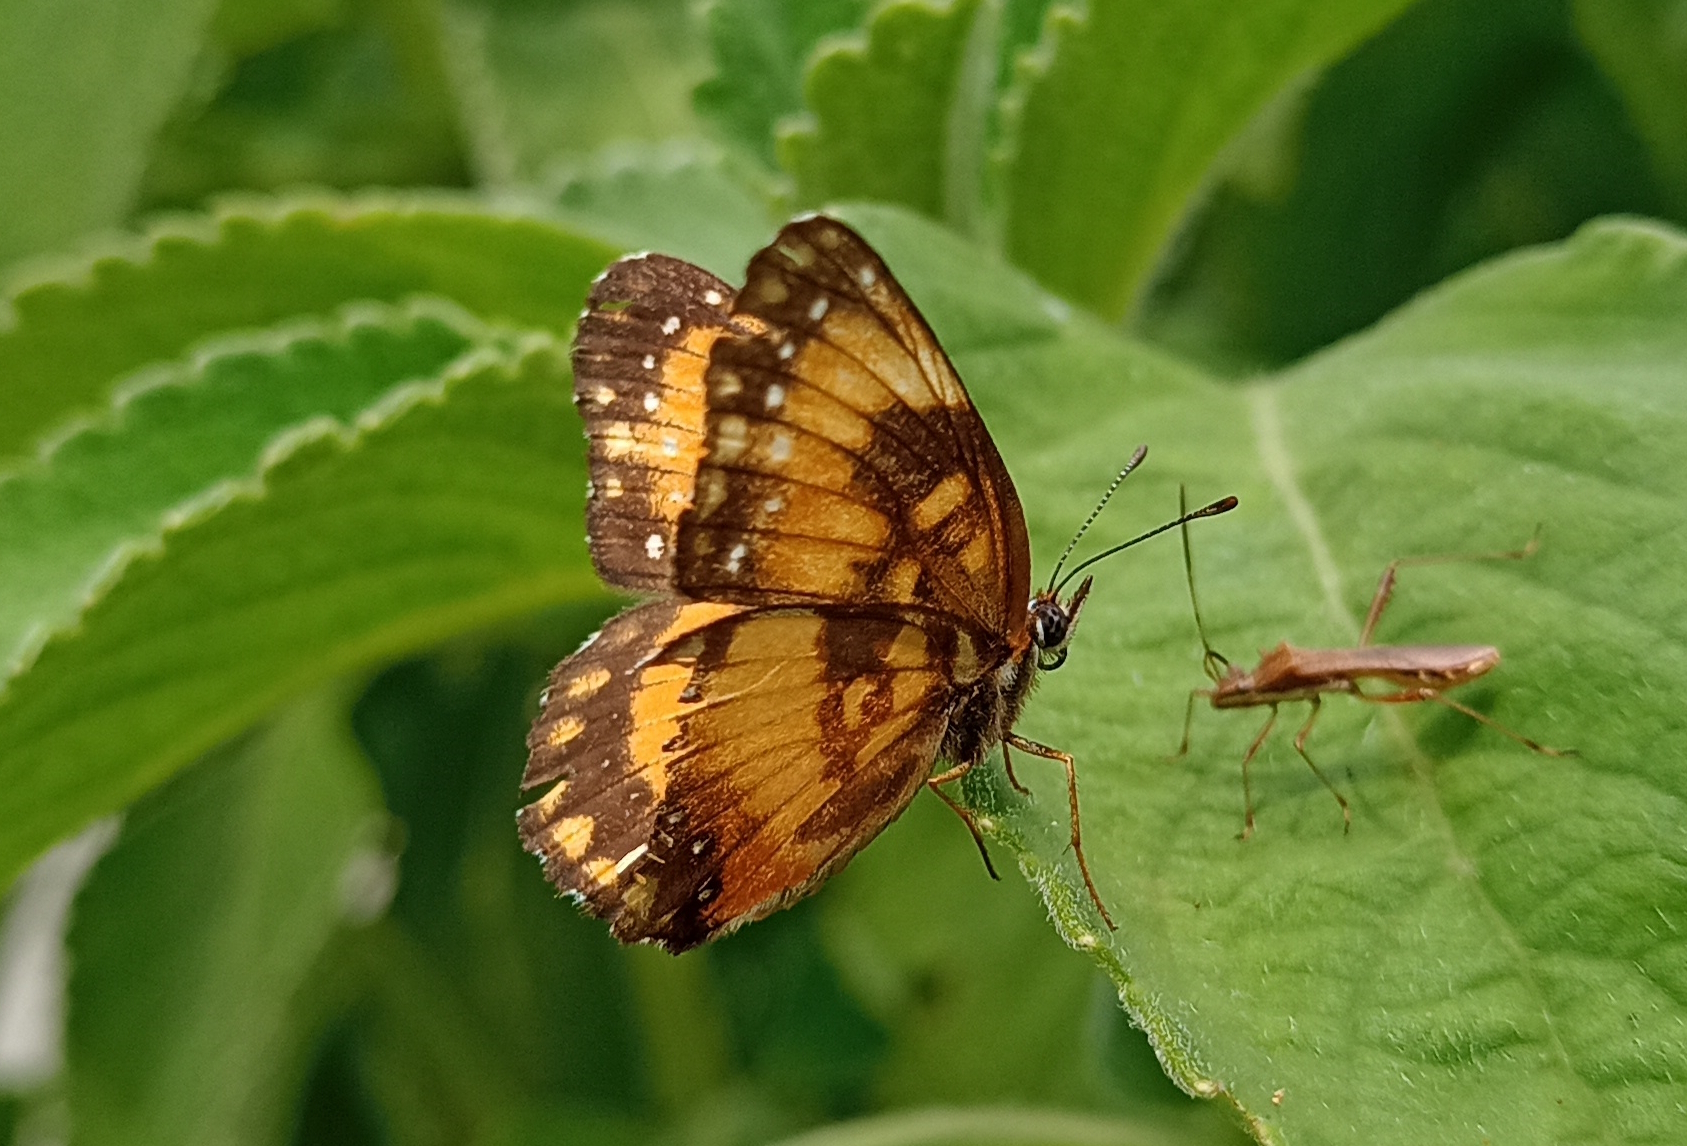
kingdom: Animalia
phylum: Arthropoda
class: Insecta
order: Lepidoptera
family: Nymphalidae
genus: Chlosyne
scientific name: Chlosyne lacinia
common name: Bordered patch
